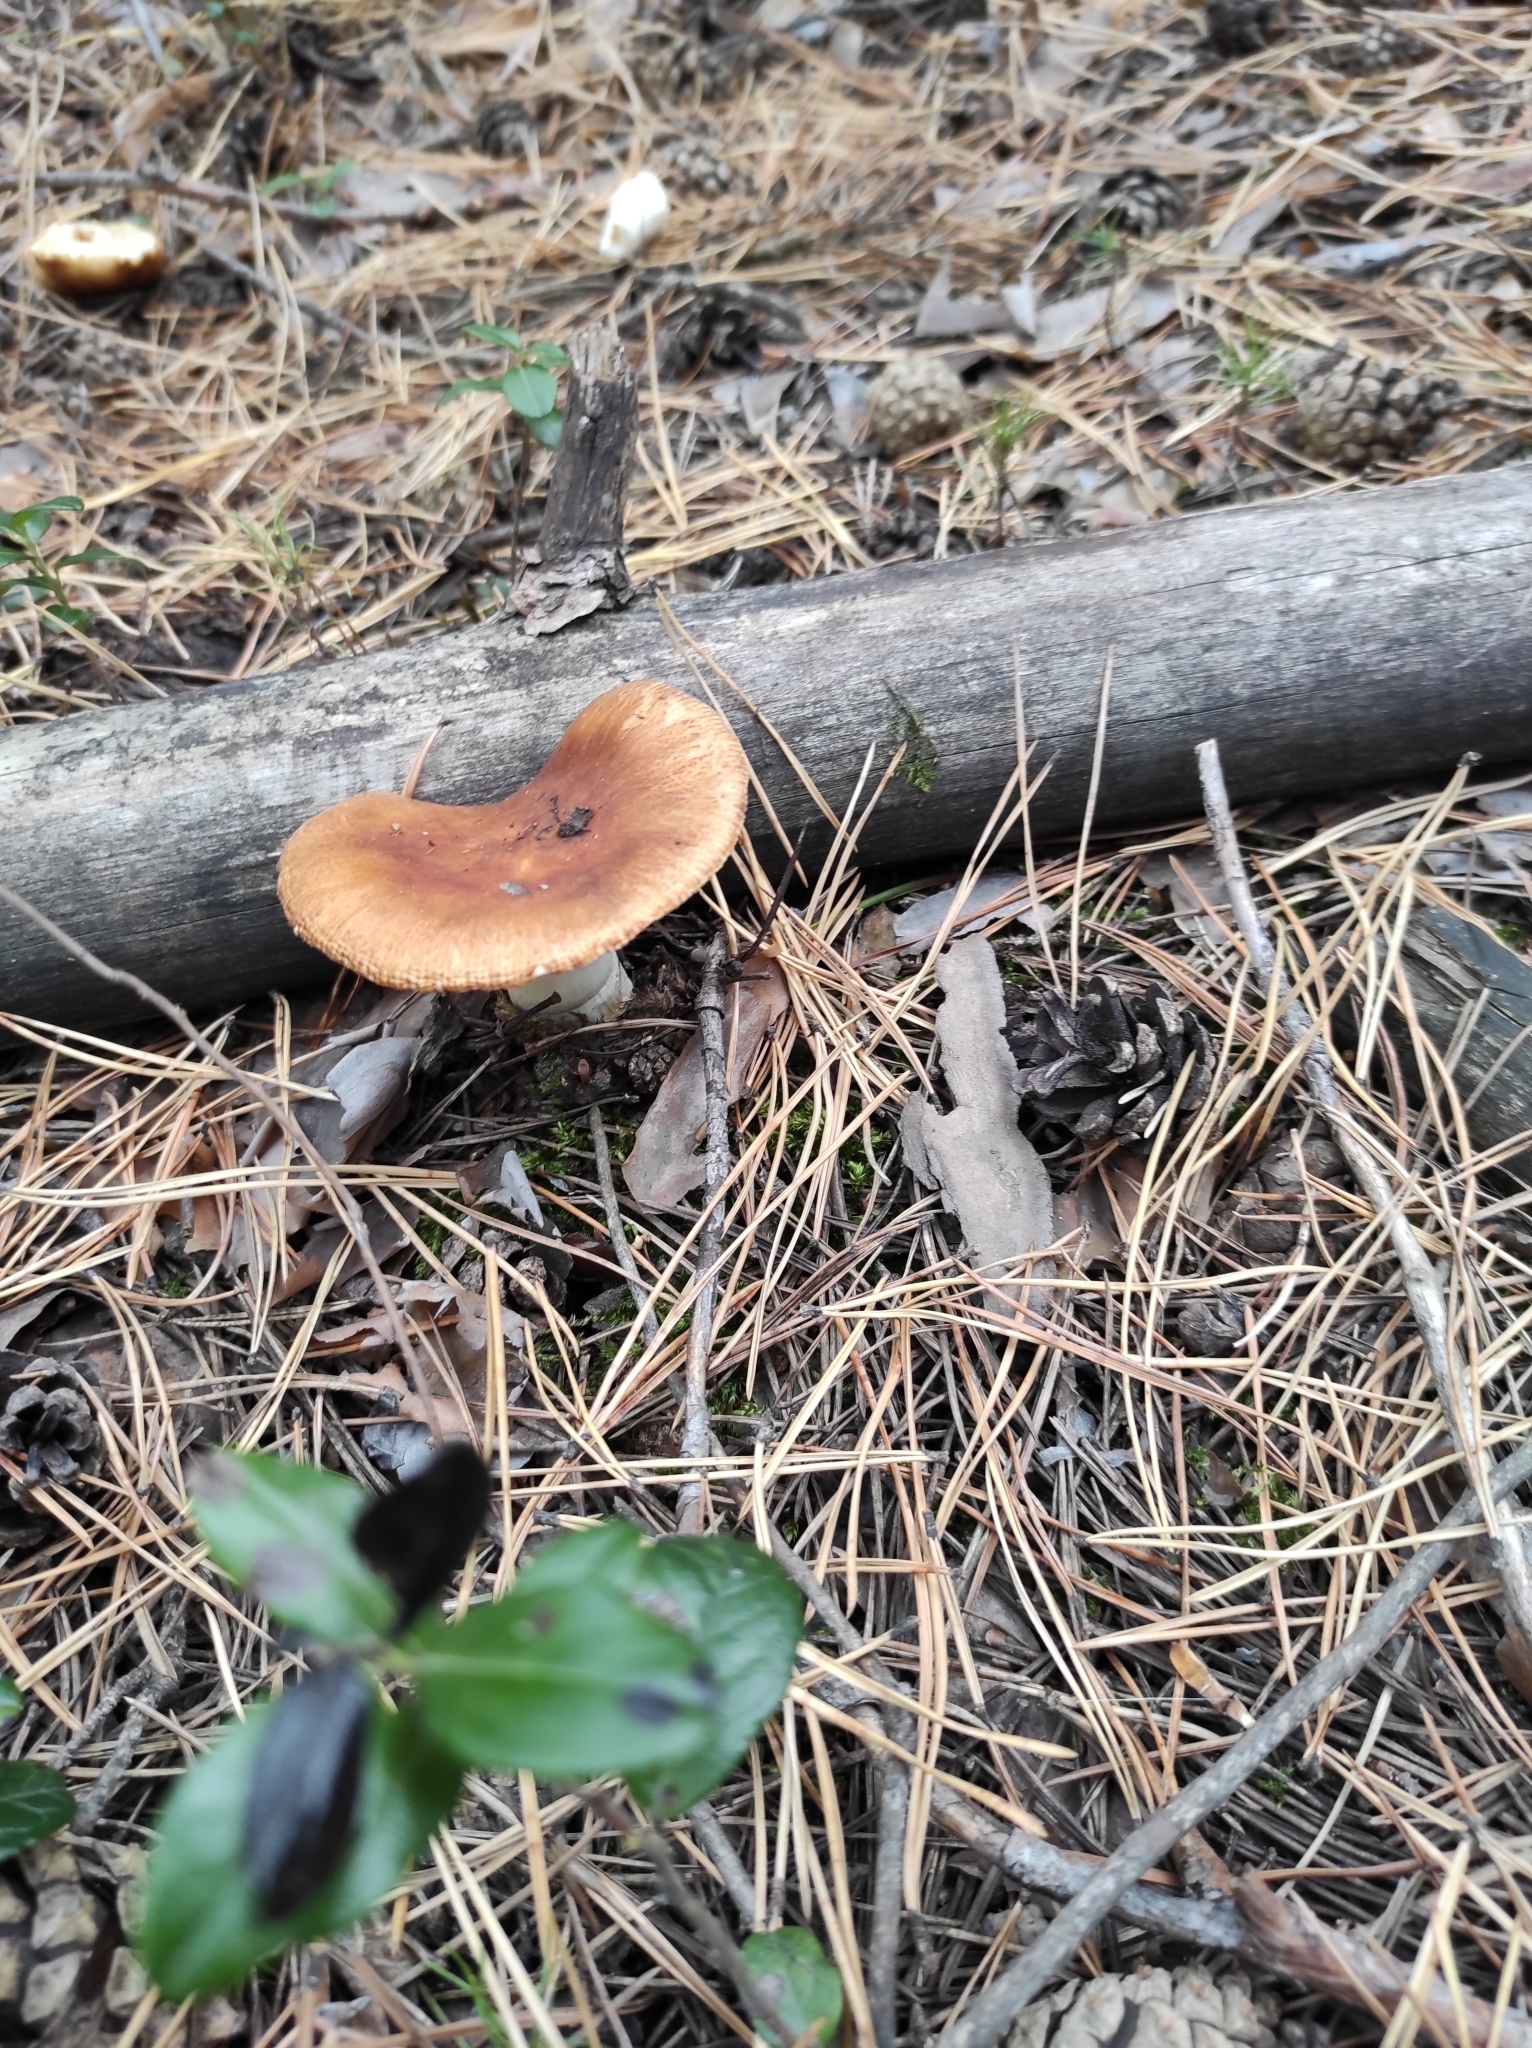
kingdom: Fungi
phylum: Basidiomycota
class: Agaricomycetes
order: Russulales
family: Russulaceae
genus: Russula
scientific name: Russula foetens
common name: Foetid russula
